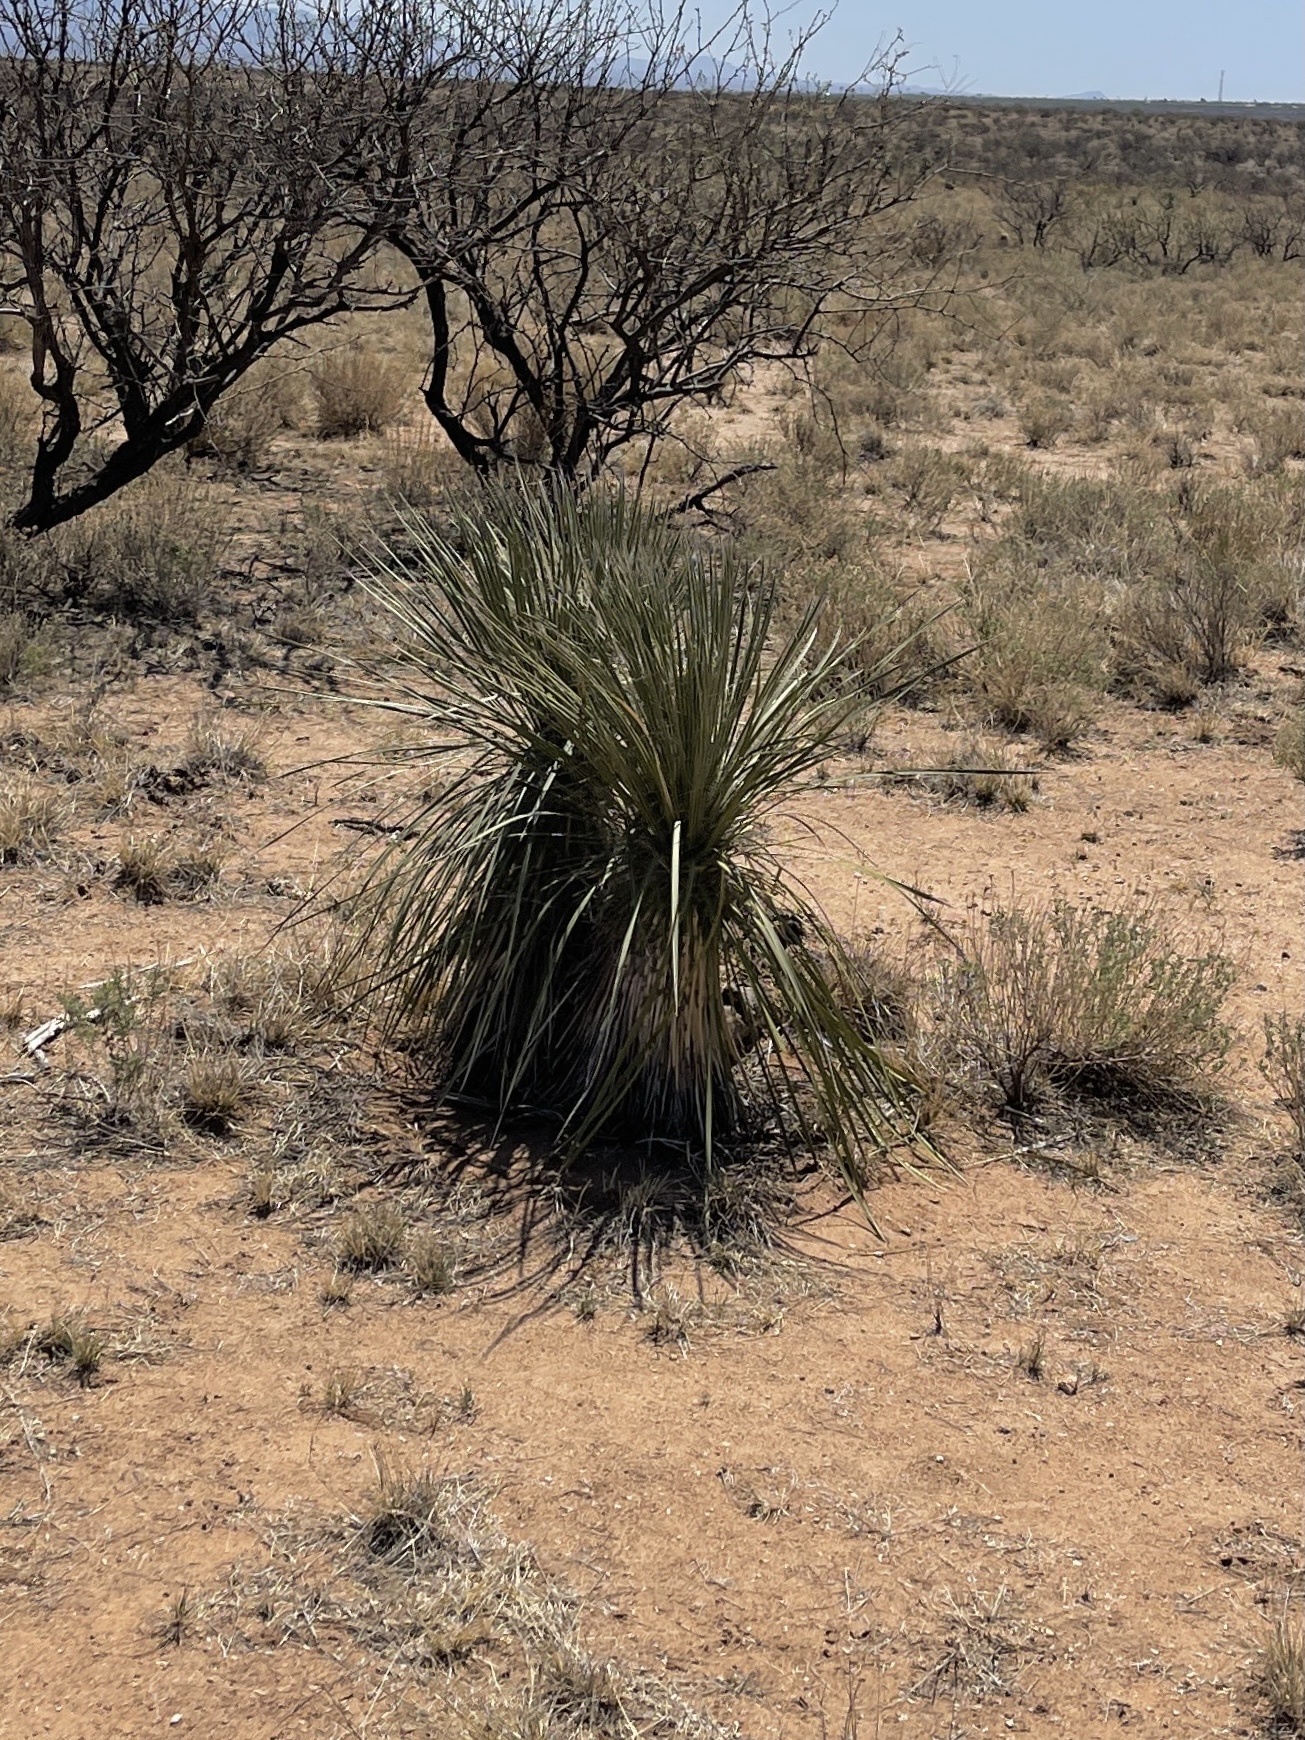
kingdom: Plantae
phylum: Tracheophyta
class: Liliopsida
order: Asparagales
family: Asparagaceae
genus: Yucca
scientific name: Yucca elata
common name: Palmella
